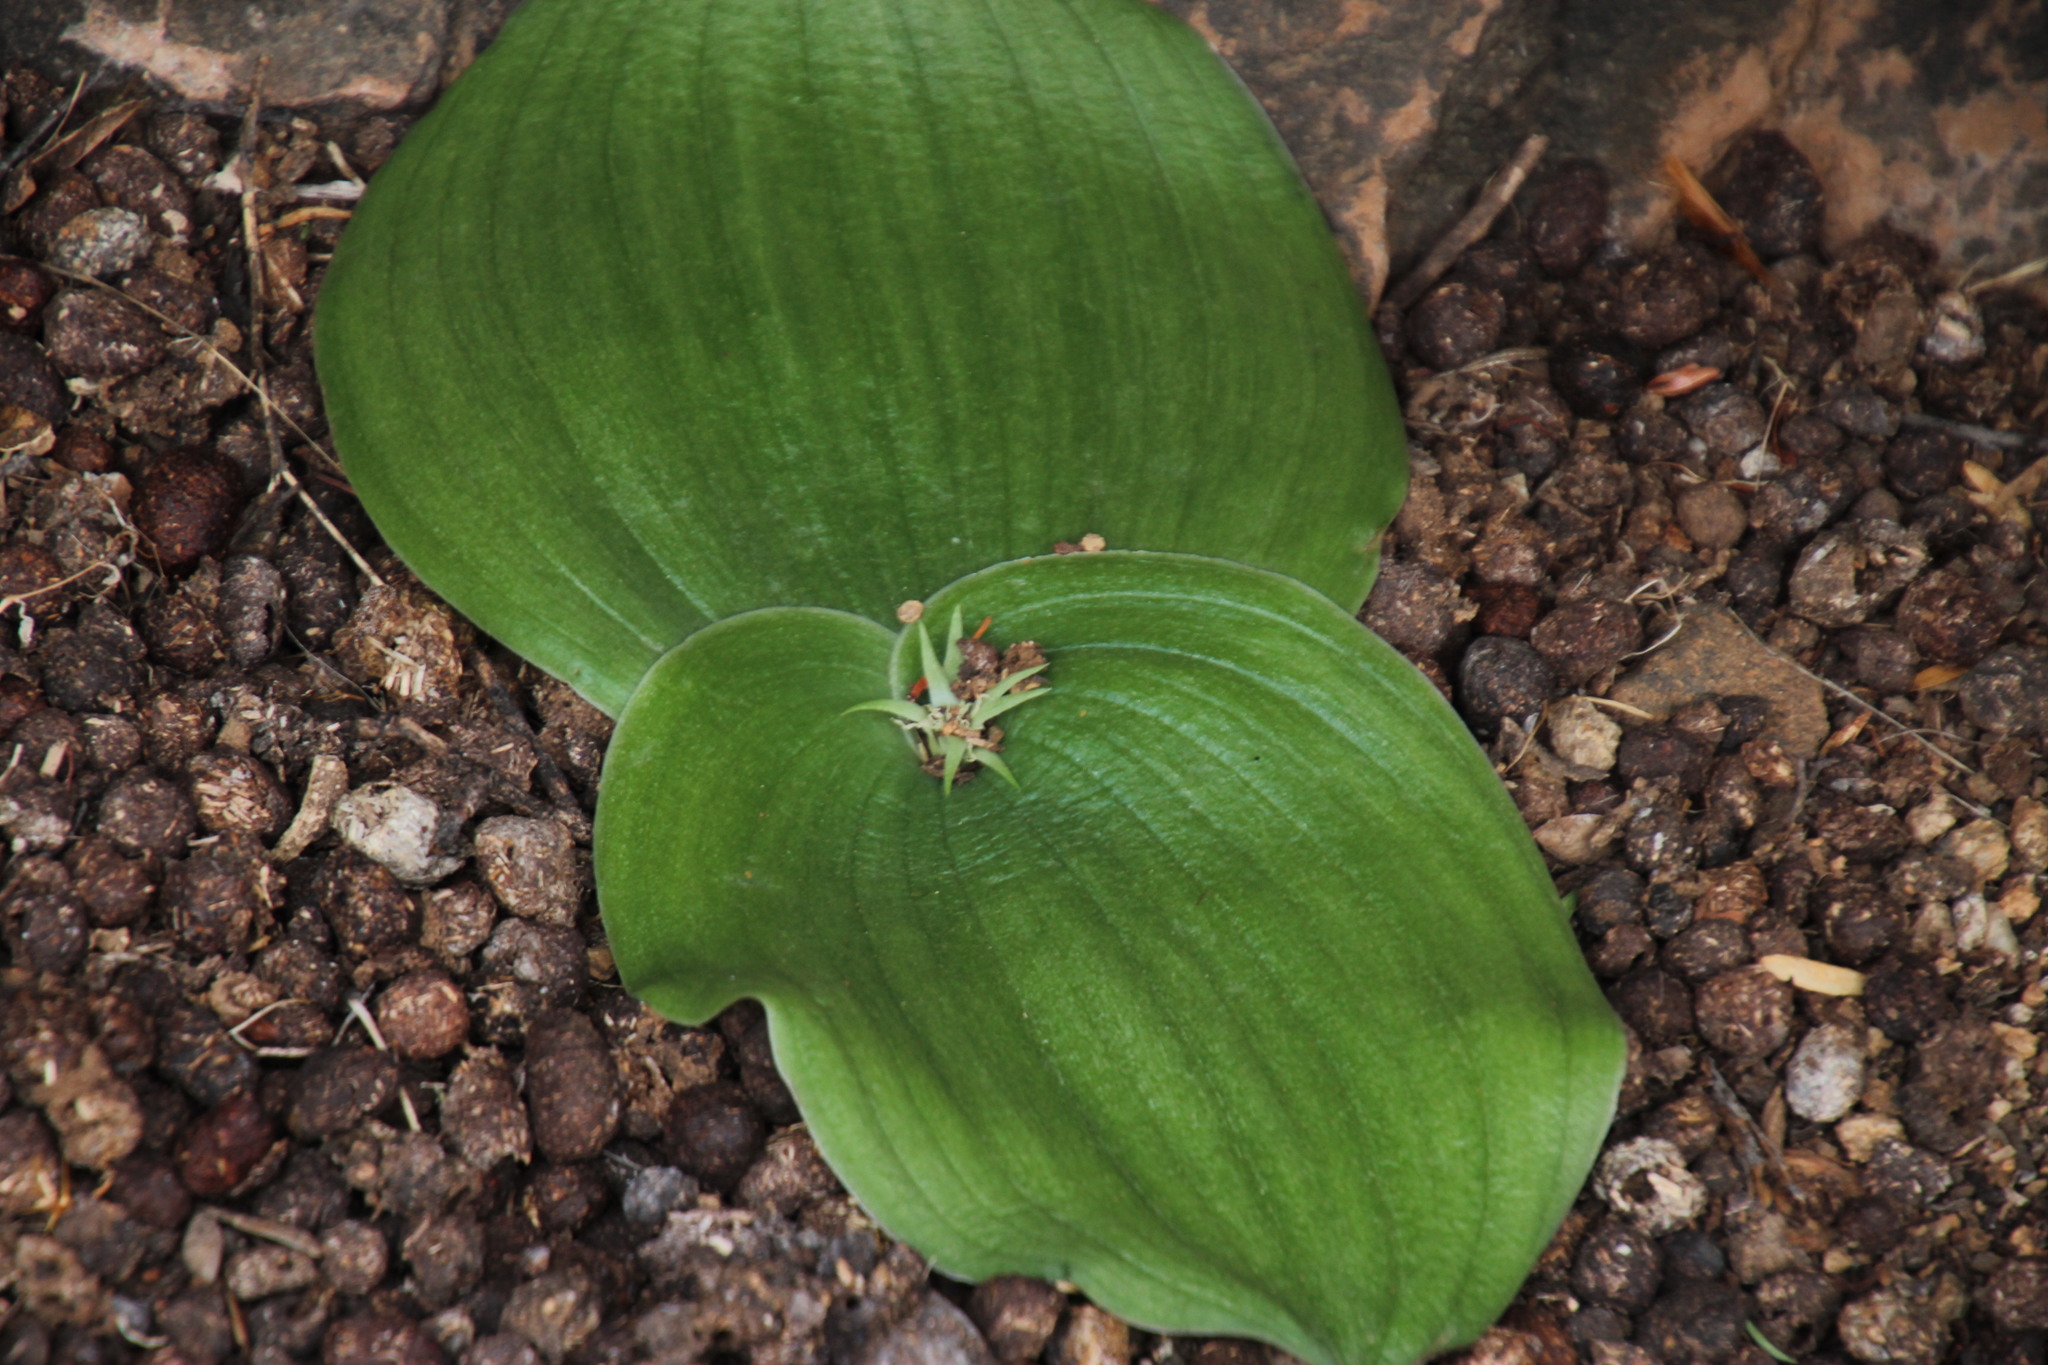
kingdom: Plantae
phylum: Tracheophyta
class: Liliopsida
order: Asparagales
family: Asparagaceae
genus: Massonia
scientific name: Massonia bifolia
